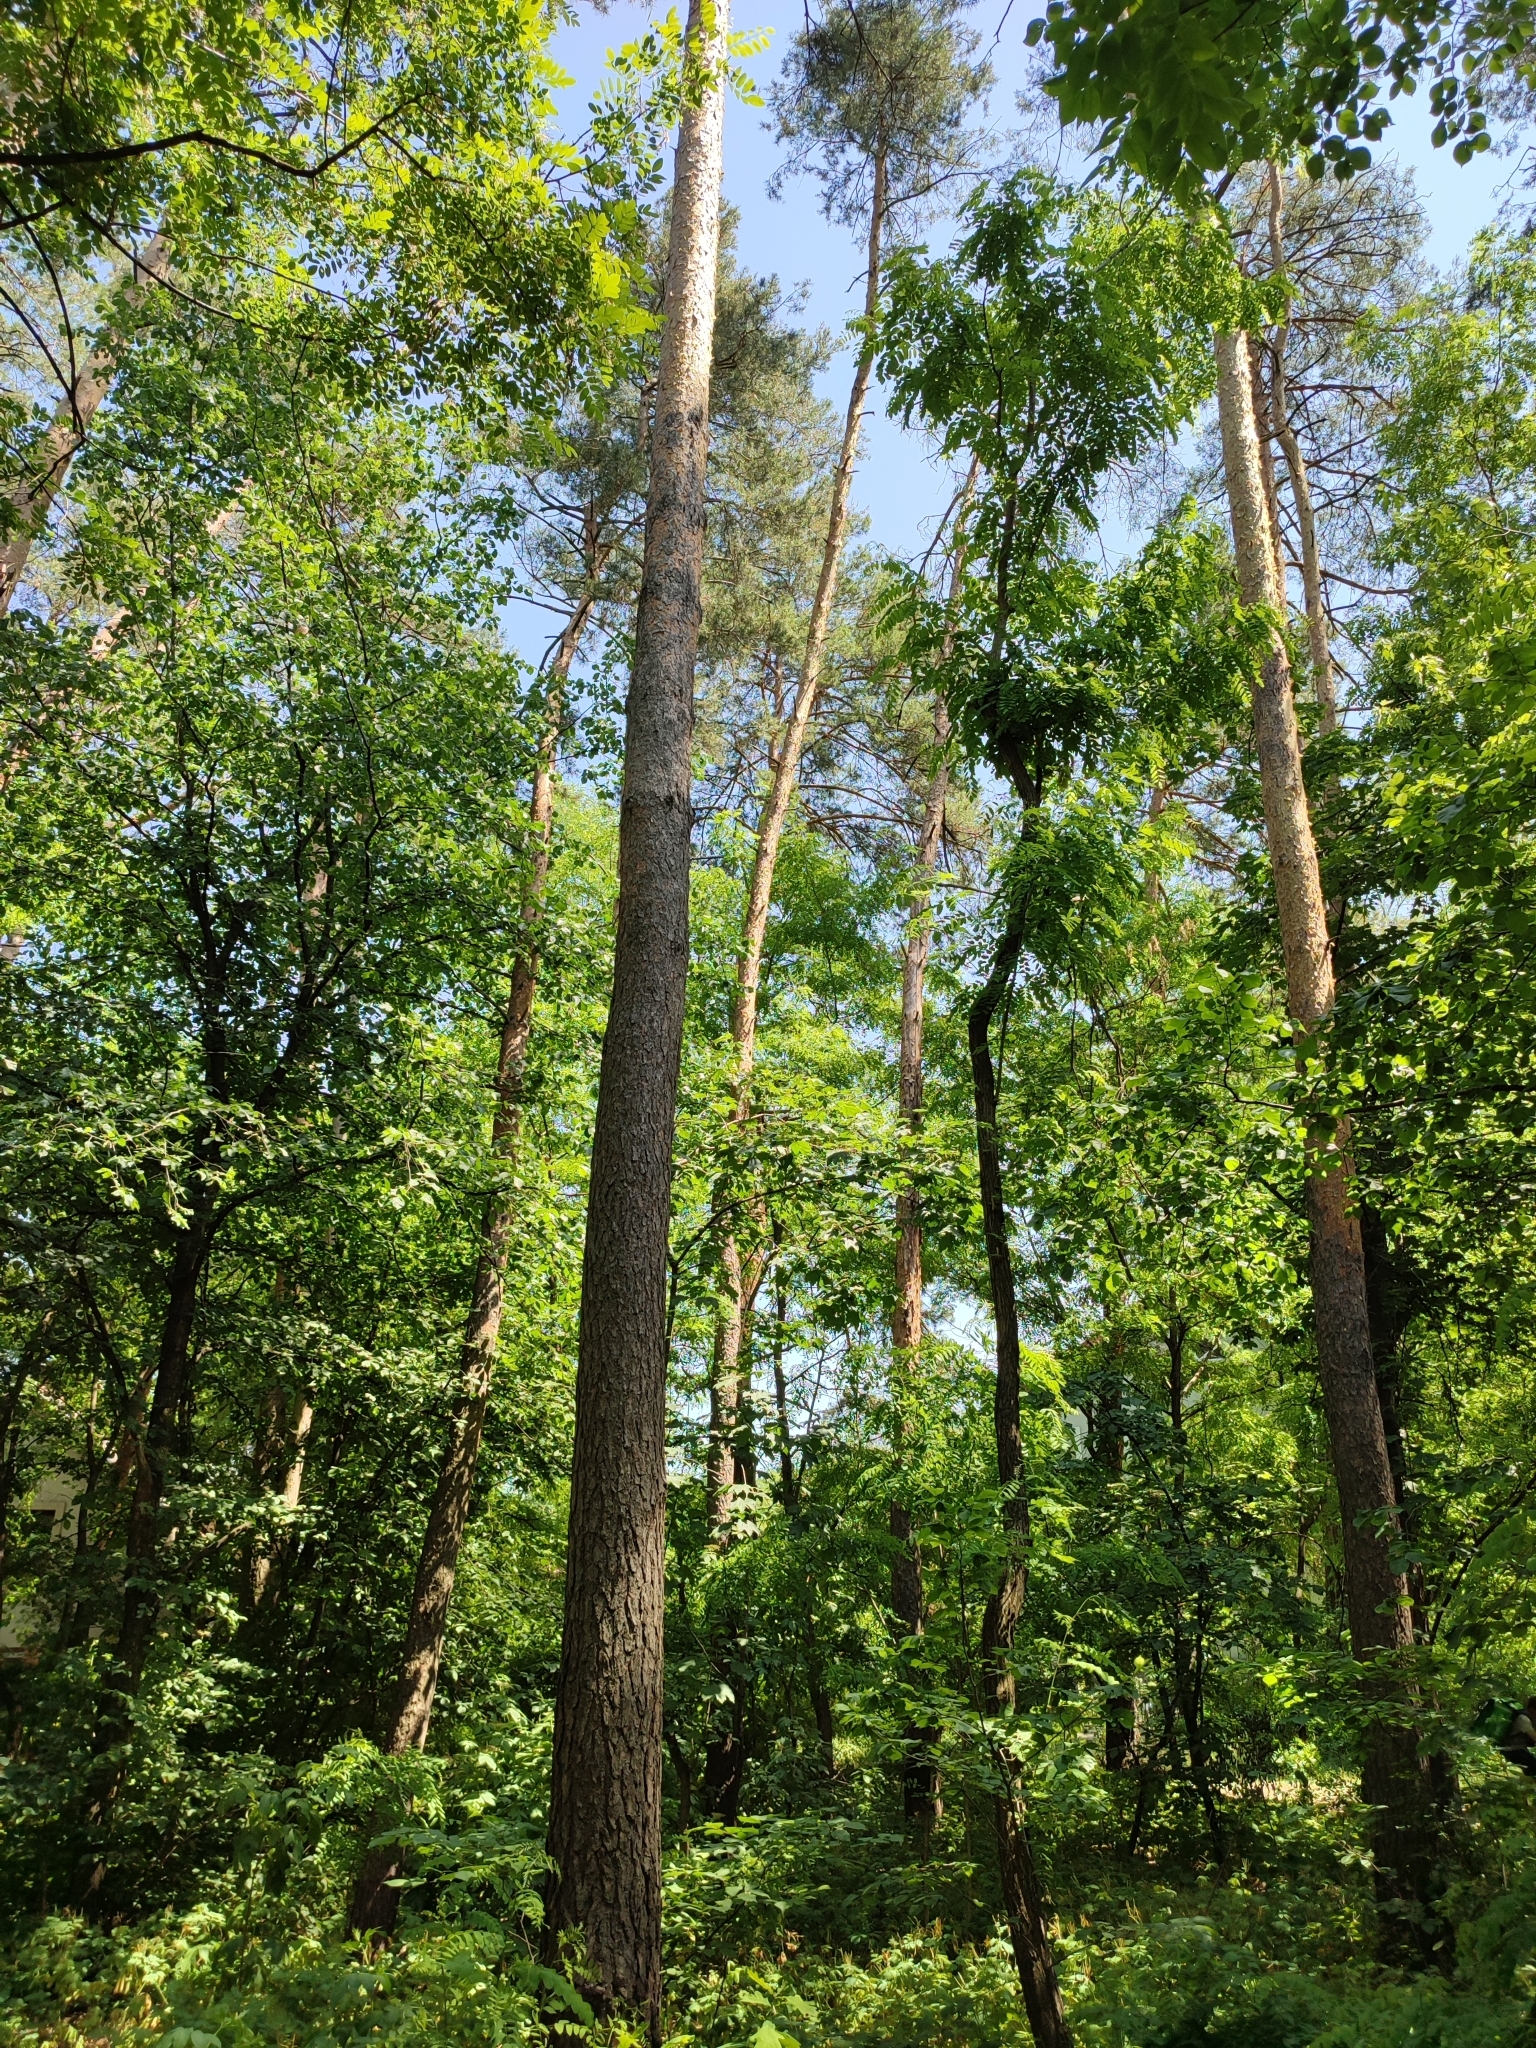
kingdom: Plantae
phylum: Tracheophyta
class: Pinopsida
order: Pinales
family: Pinaceae
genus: Pinus
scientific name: Pinus sylvestris
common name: Scots pine
